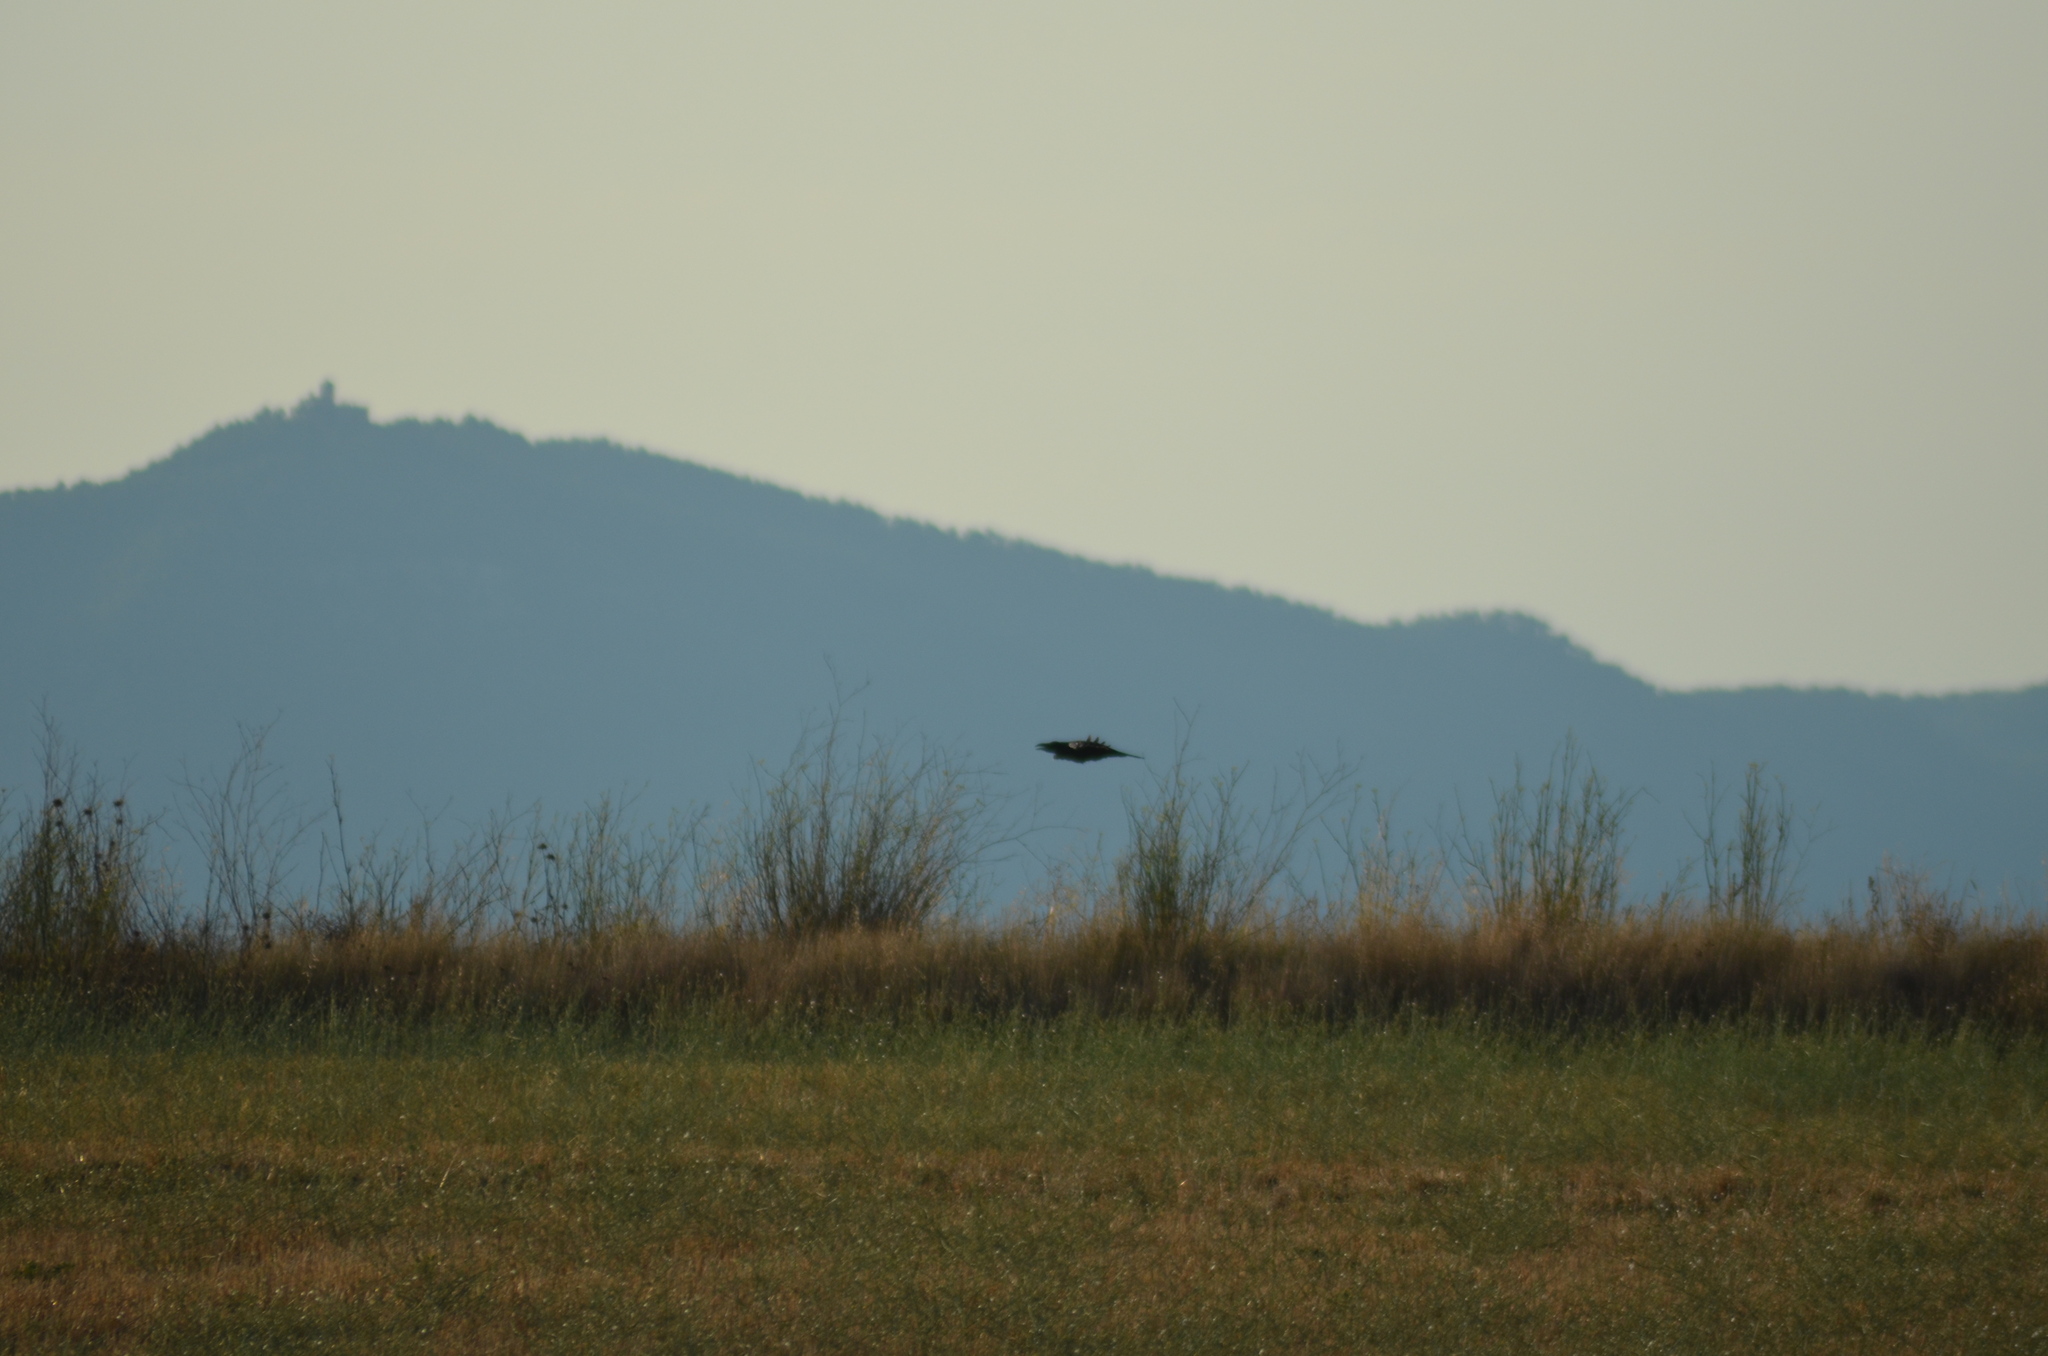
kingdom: Animalia
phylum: Chordata
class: Aves
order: Passeriformes
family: Corvidae
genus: Corvus
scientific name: Corvus corax
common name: Common raven
